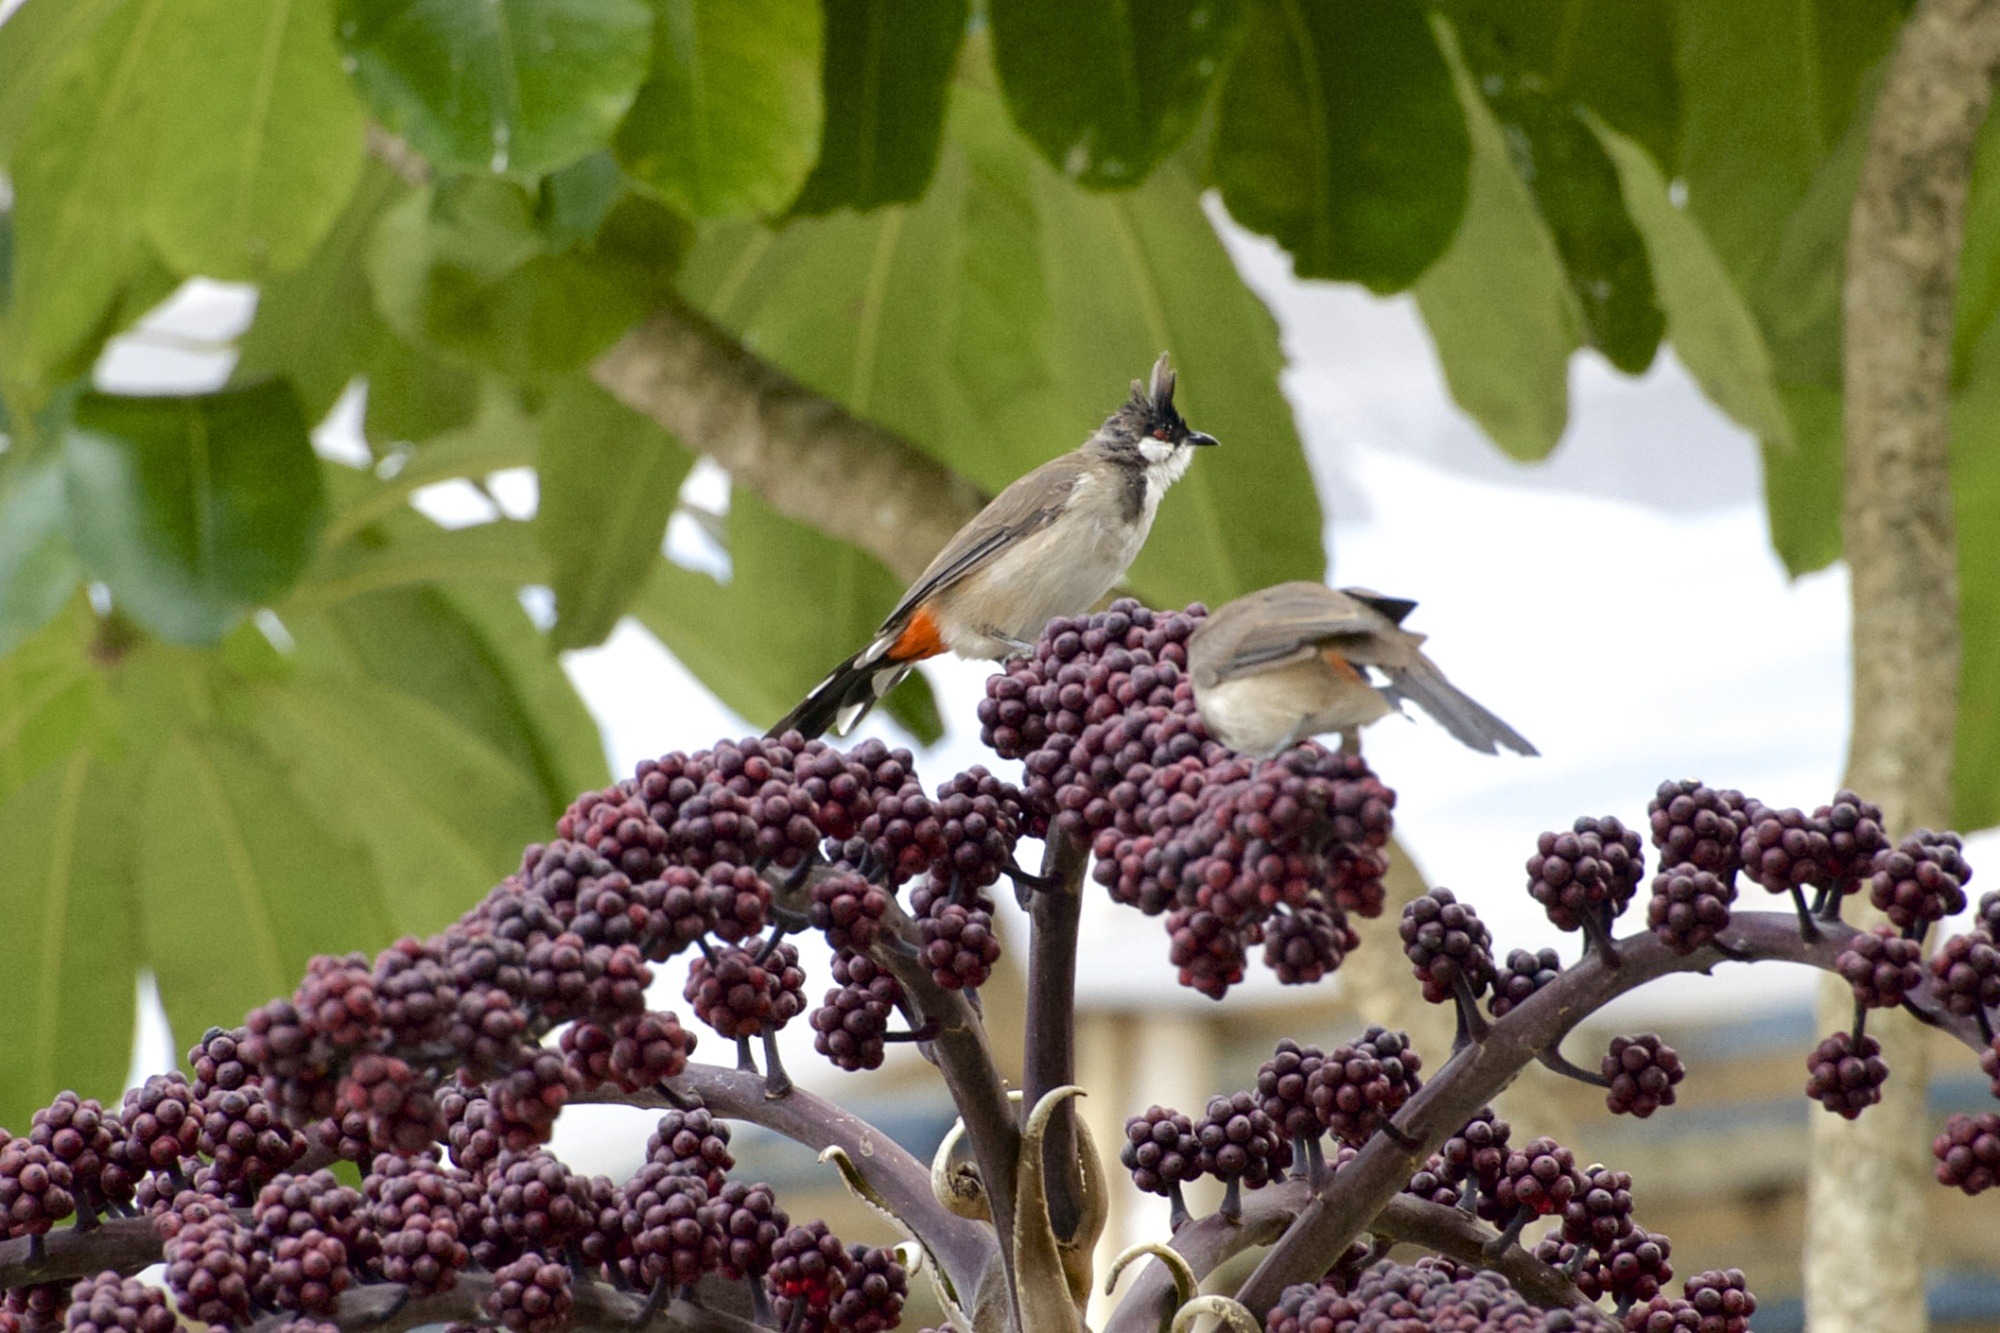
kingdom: Animalia
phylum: Chordata
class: Aves
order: Passeriformes
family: Pycnonotidae
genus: Pycnonotus
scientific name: Pycnonotus jocosus
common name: Red-whiskered bulbul
